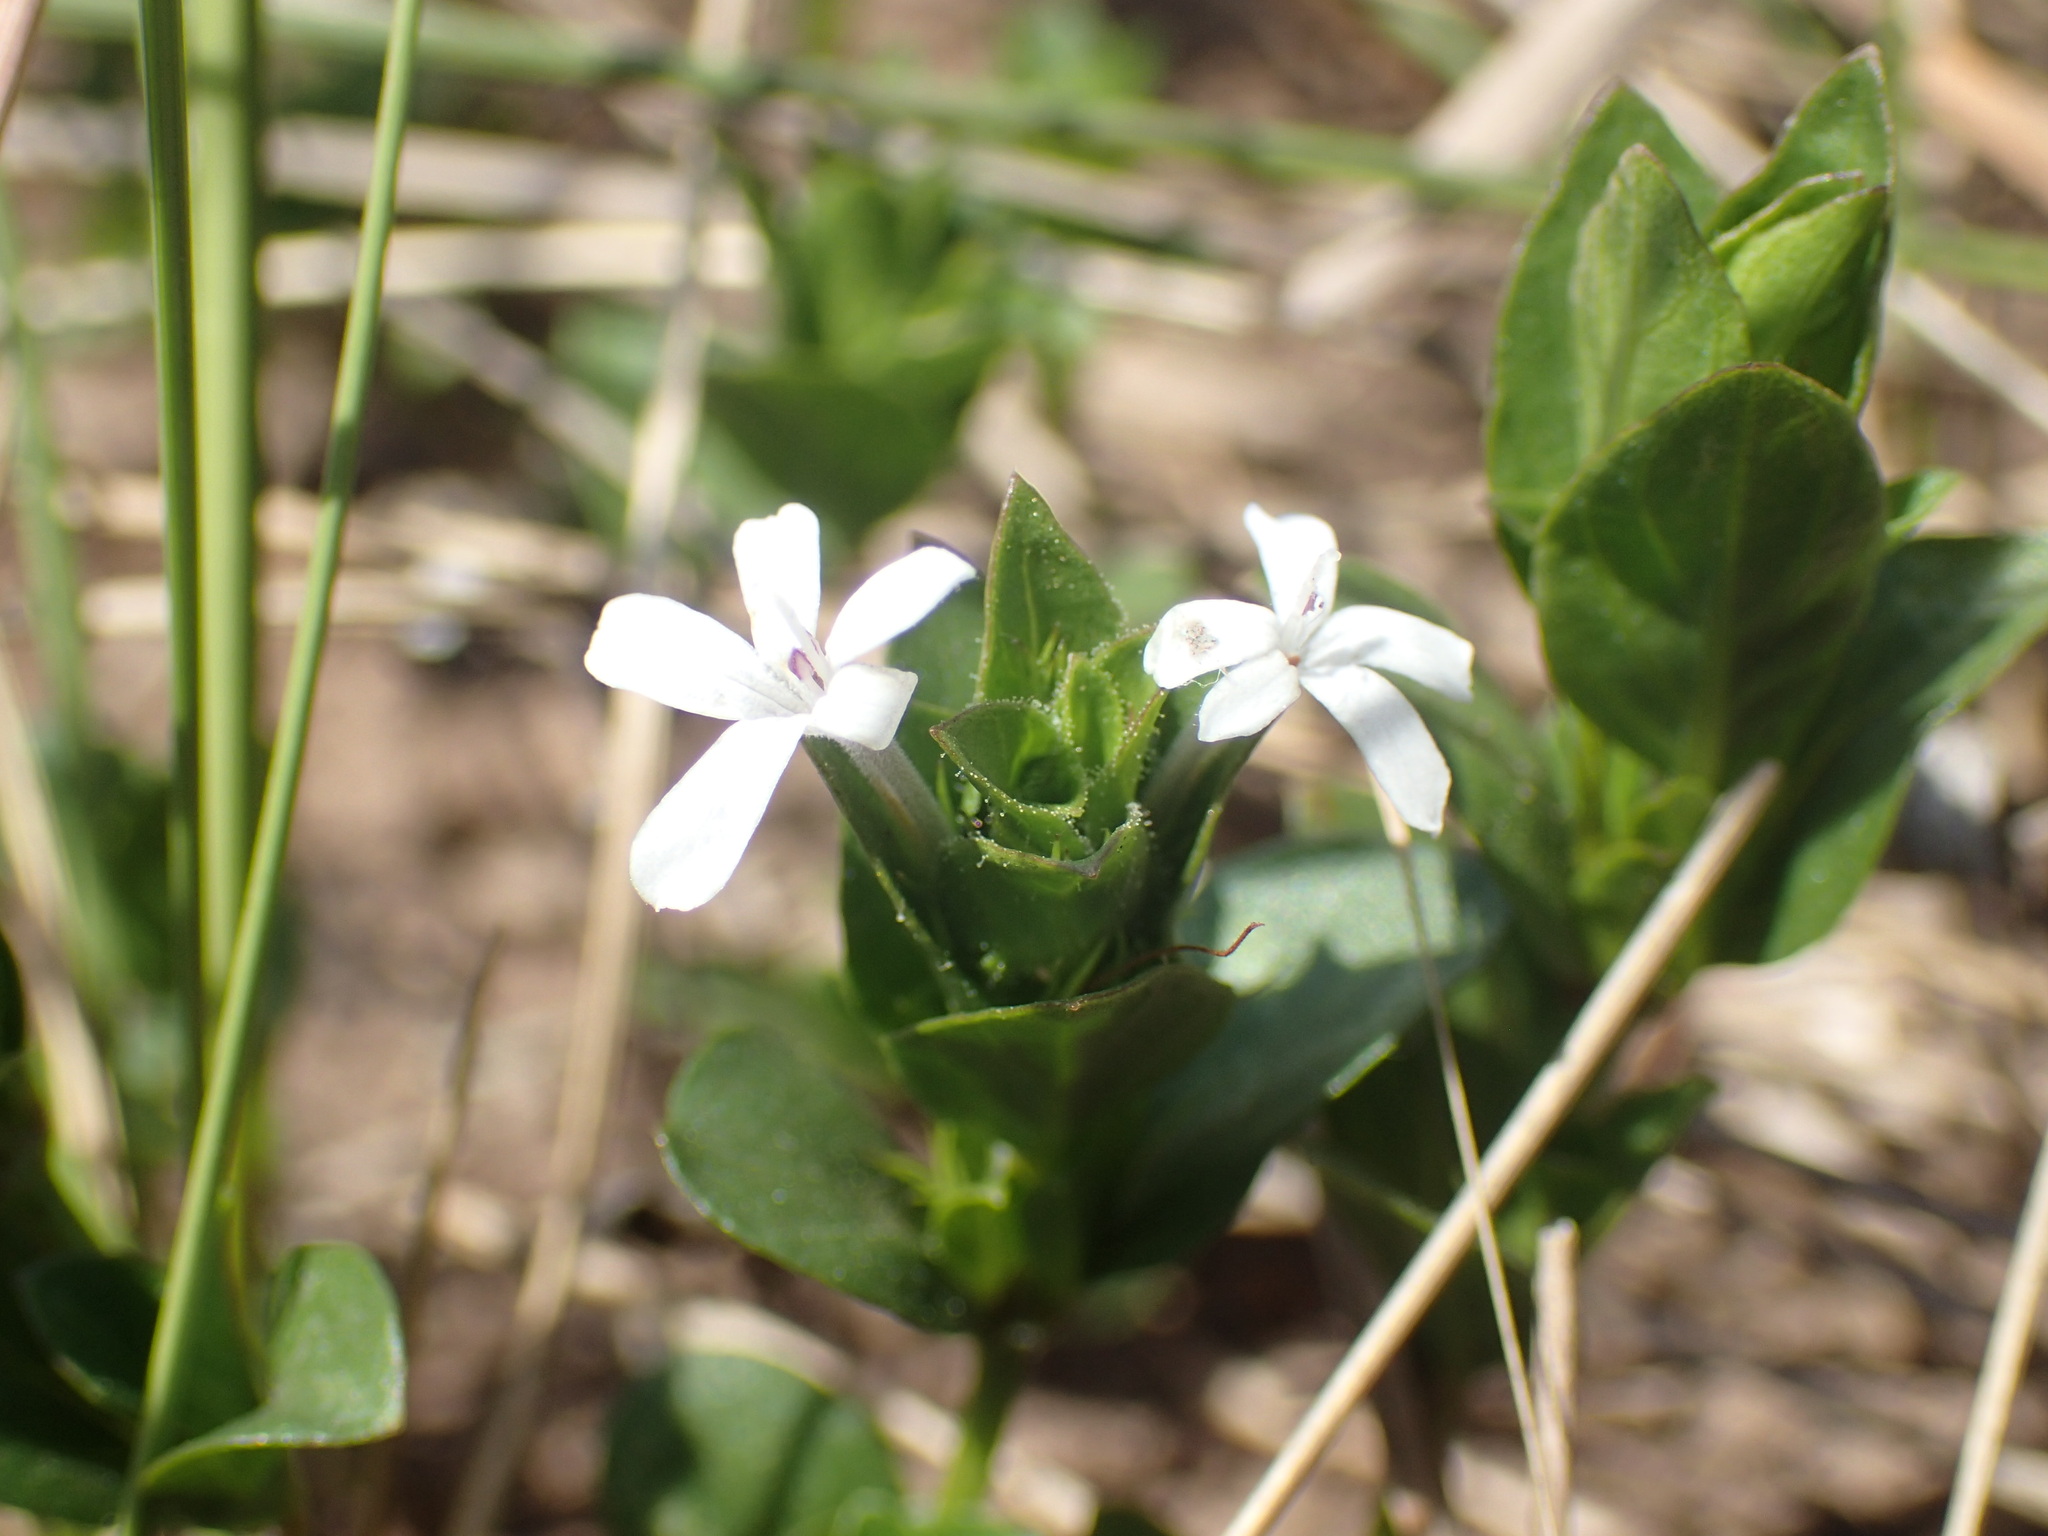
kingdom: Plantae
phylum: Tracheophyta
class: Magnoliopsida
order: Lamiales
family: Acanthaceae
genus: Dyschoriste
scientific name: Dyschoriste setigera
